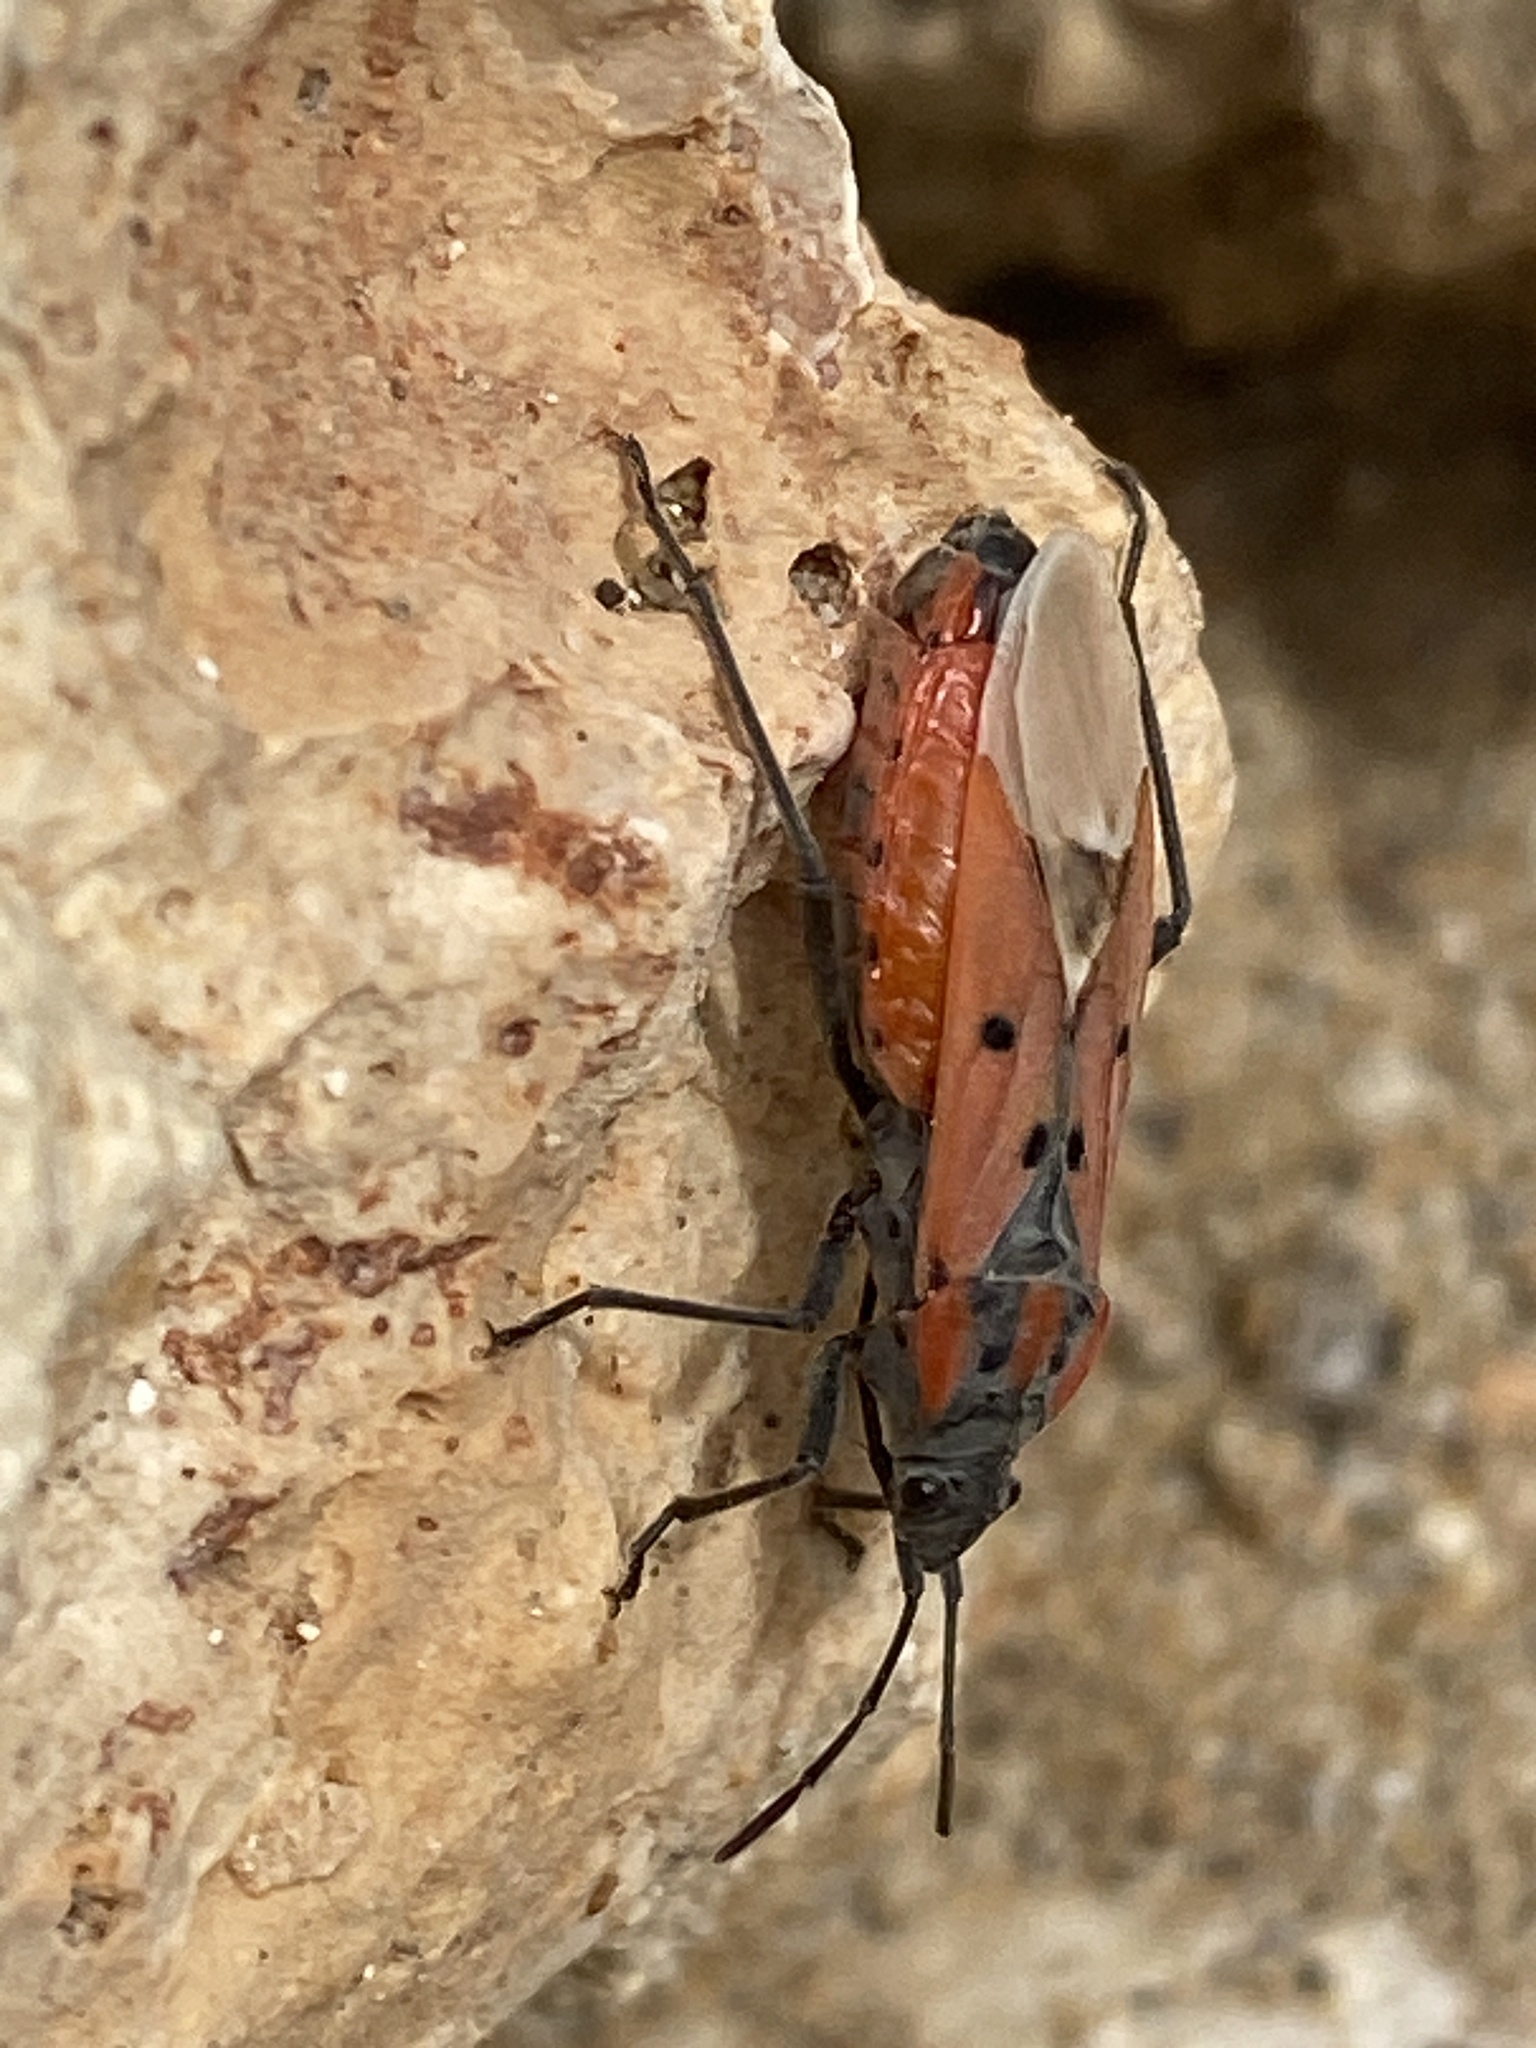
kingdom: Animalia
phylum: Arthropoda
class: Insecta
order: Hemiptera
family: Lygaeidae
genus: Lygaeus
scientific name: Lygaeus creticus
